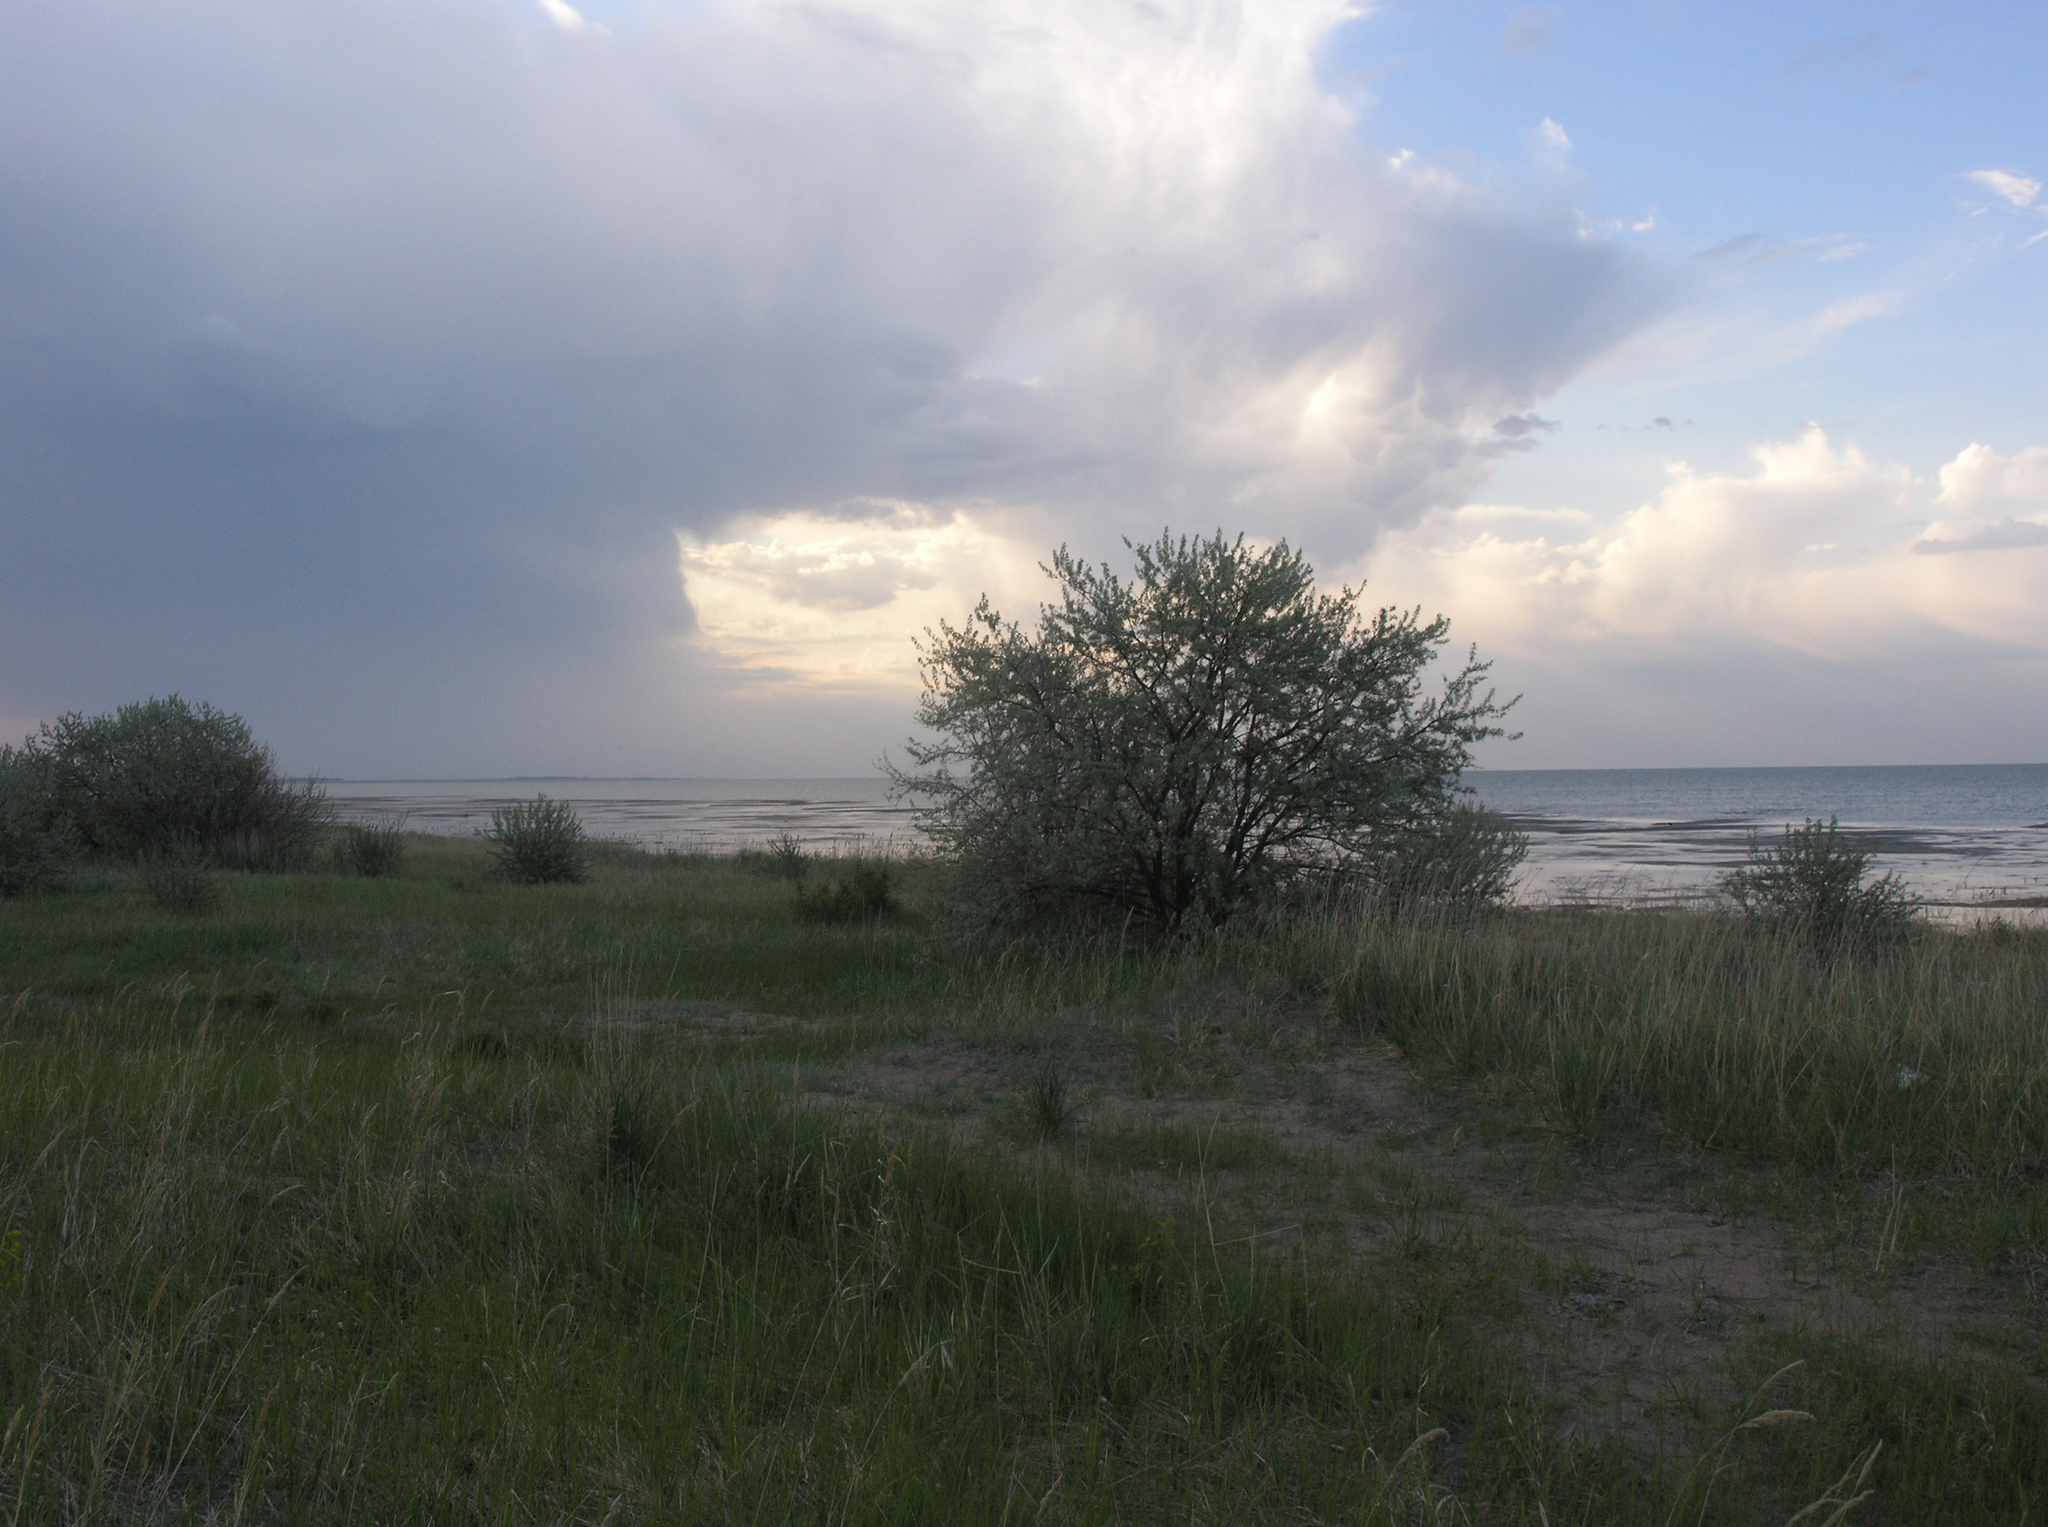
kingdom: Plantae
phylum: Tracheophyta
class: Magnoliopsida
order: Rosales
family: Elaeagnaceae
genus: Elaeagnus
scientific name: Elaeagnus angustifolia
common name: Russian olive
